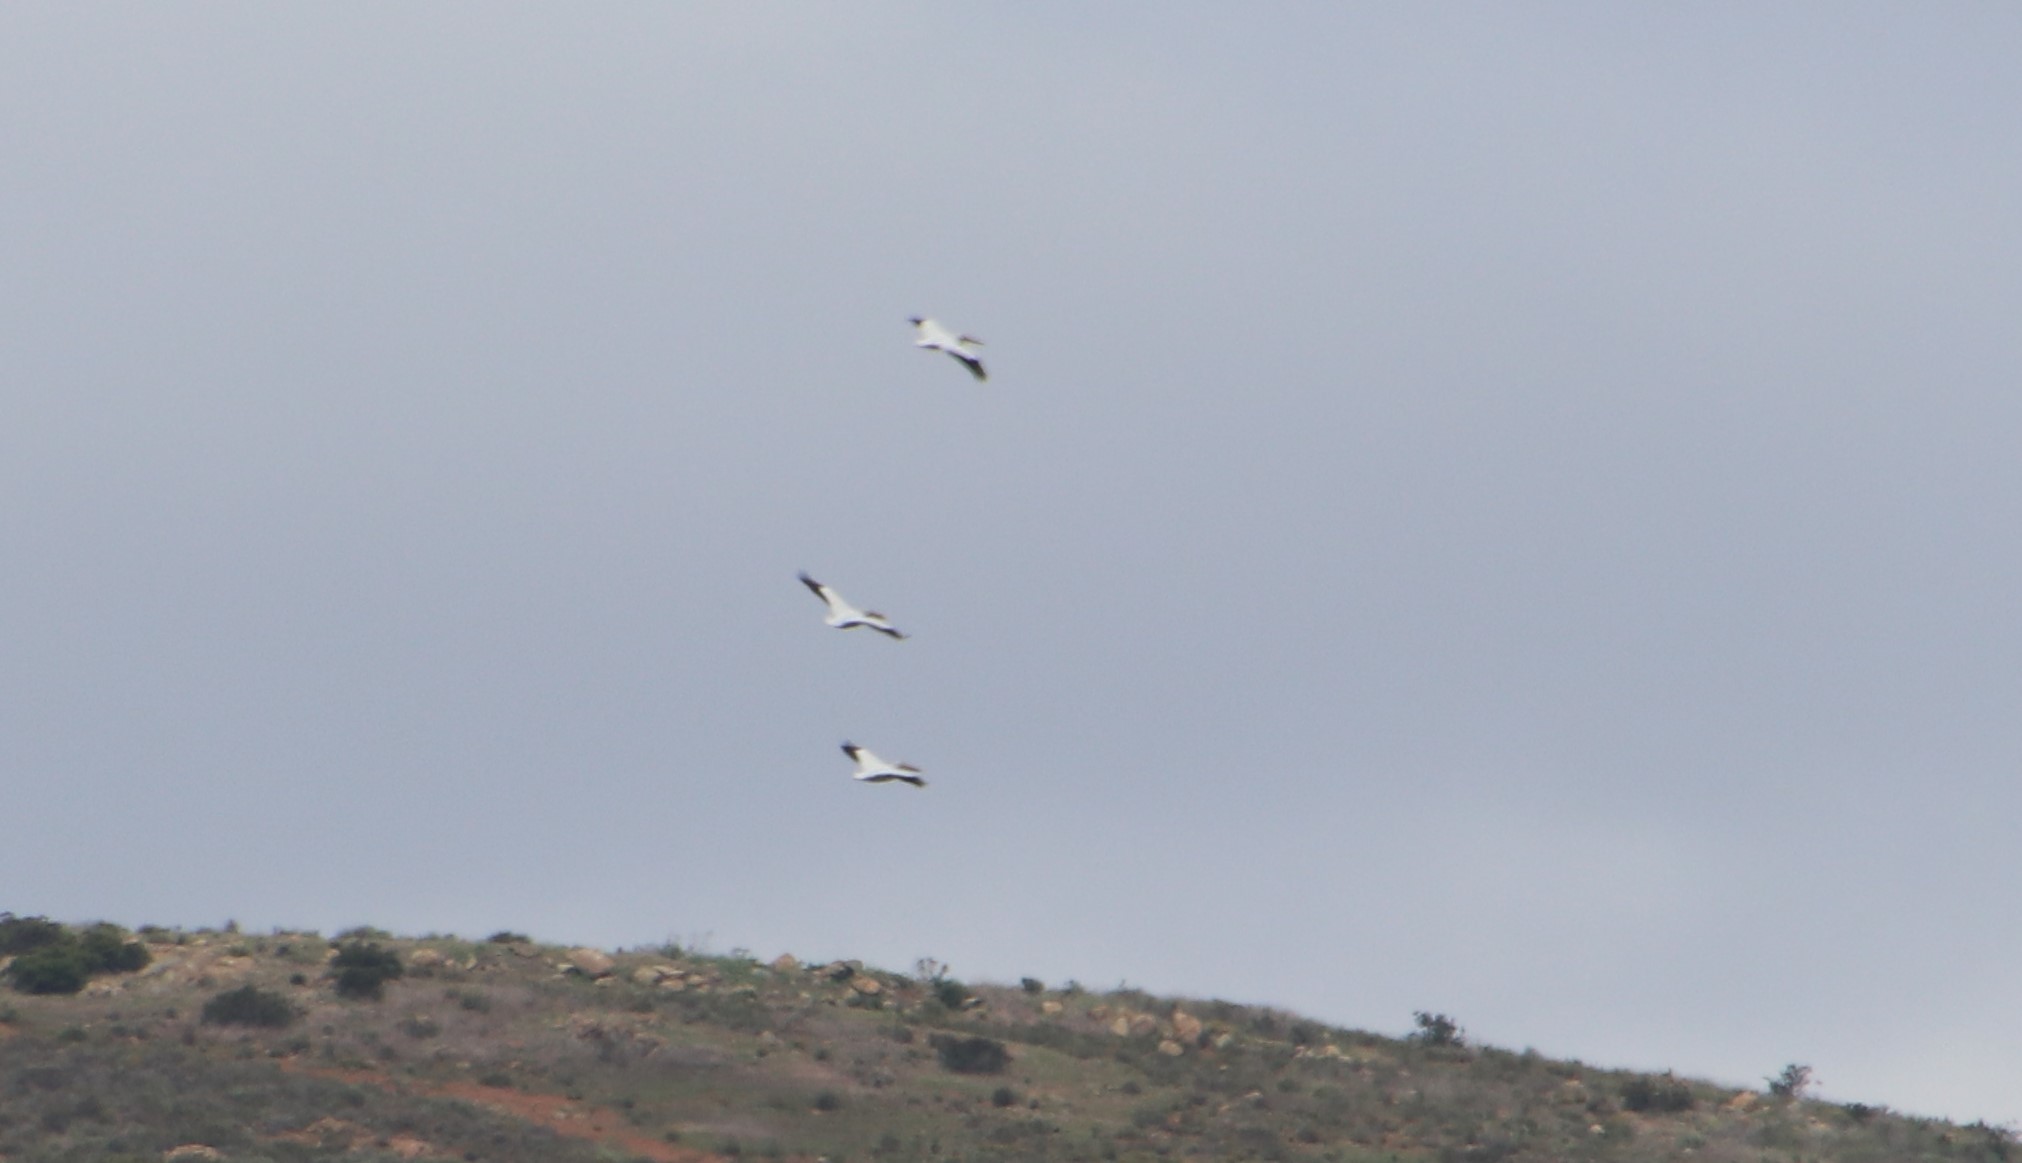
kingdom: Animalia
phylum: Chordata
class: Aves
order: Pelecaniformes
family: Pelecanidae
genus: Pelecanus
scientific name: Pelecanus erythrorhynchos
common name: American white pelican
